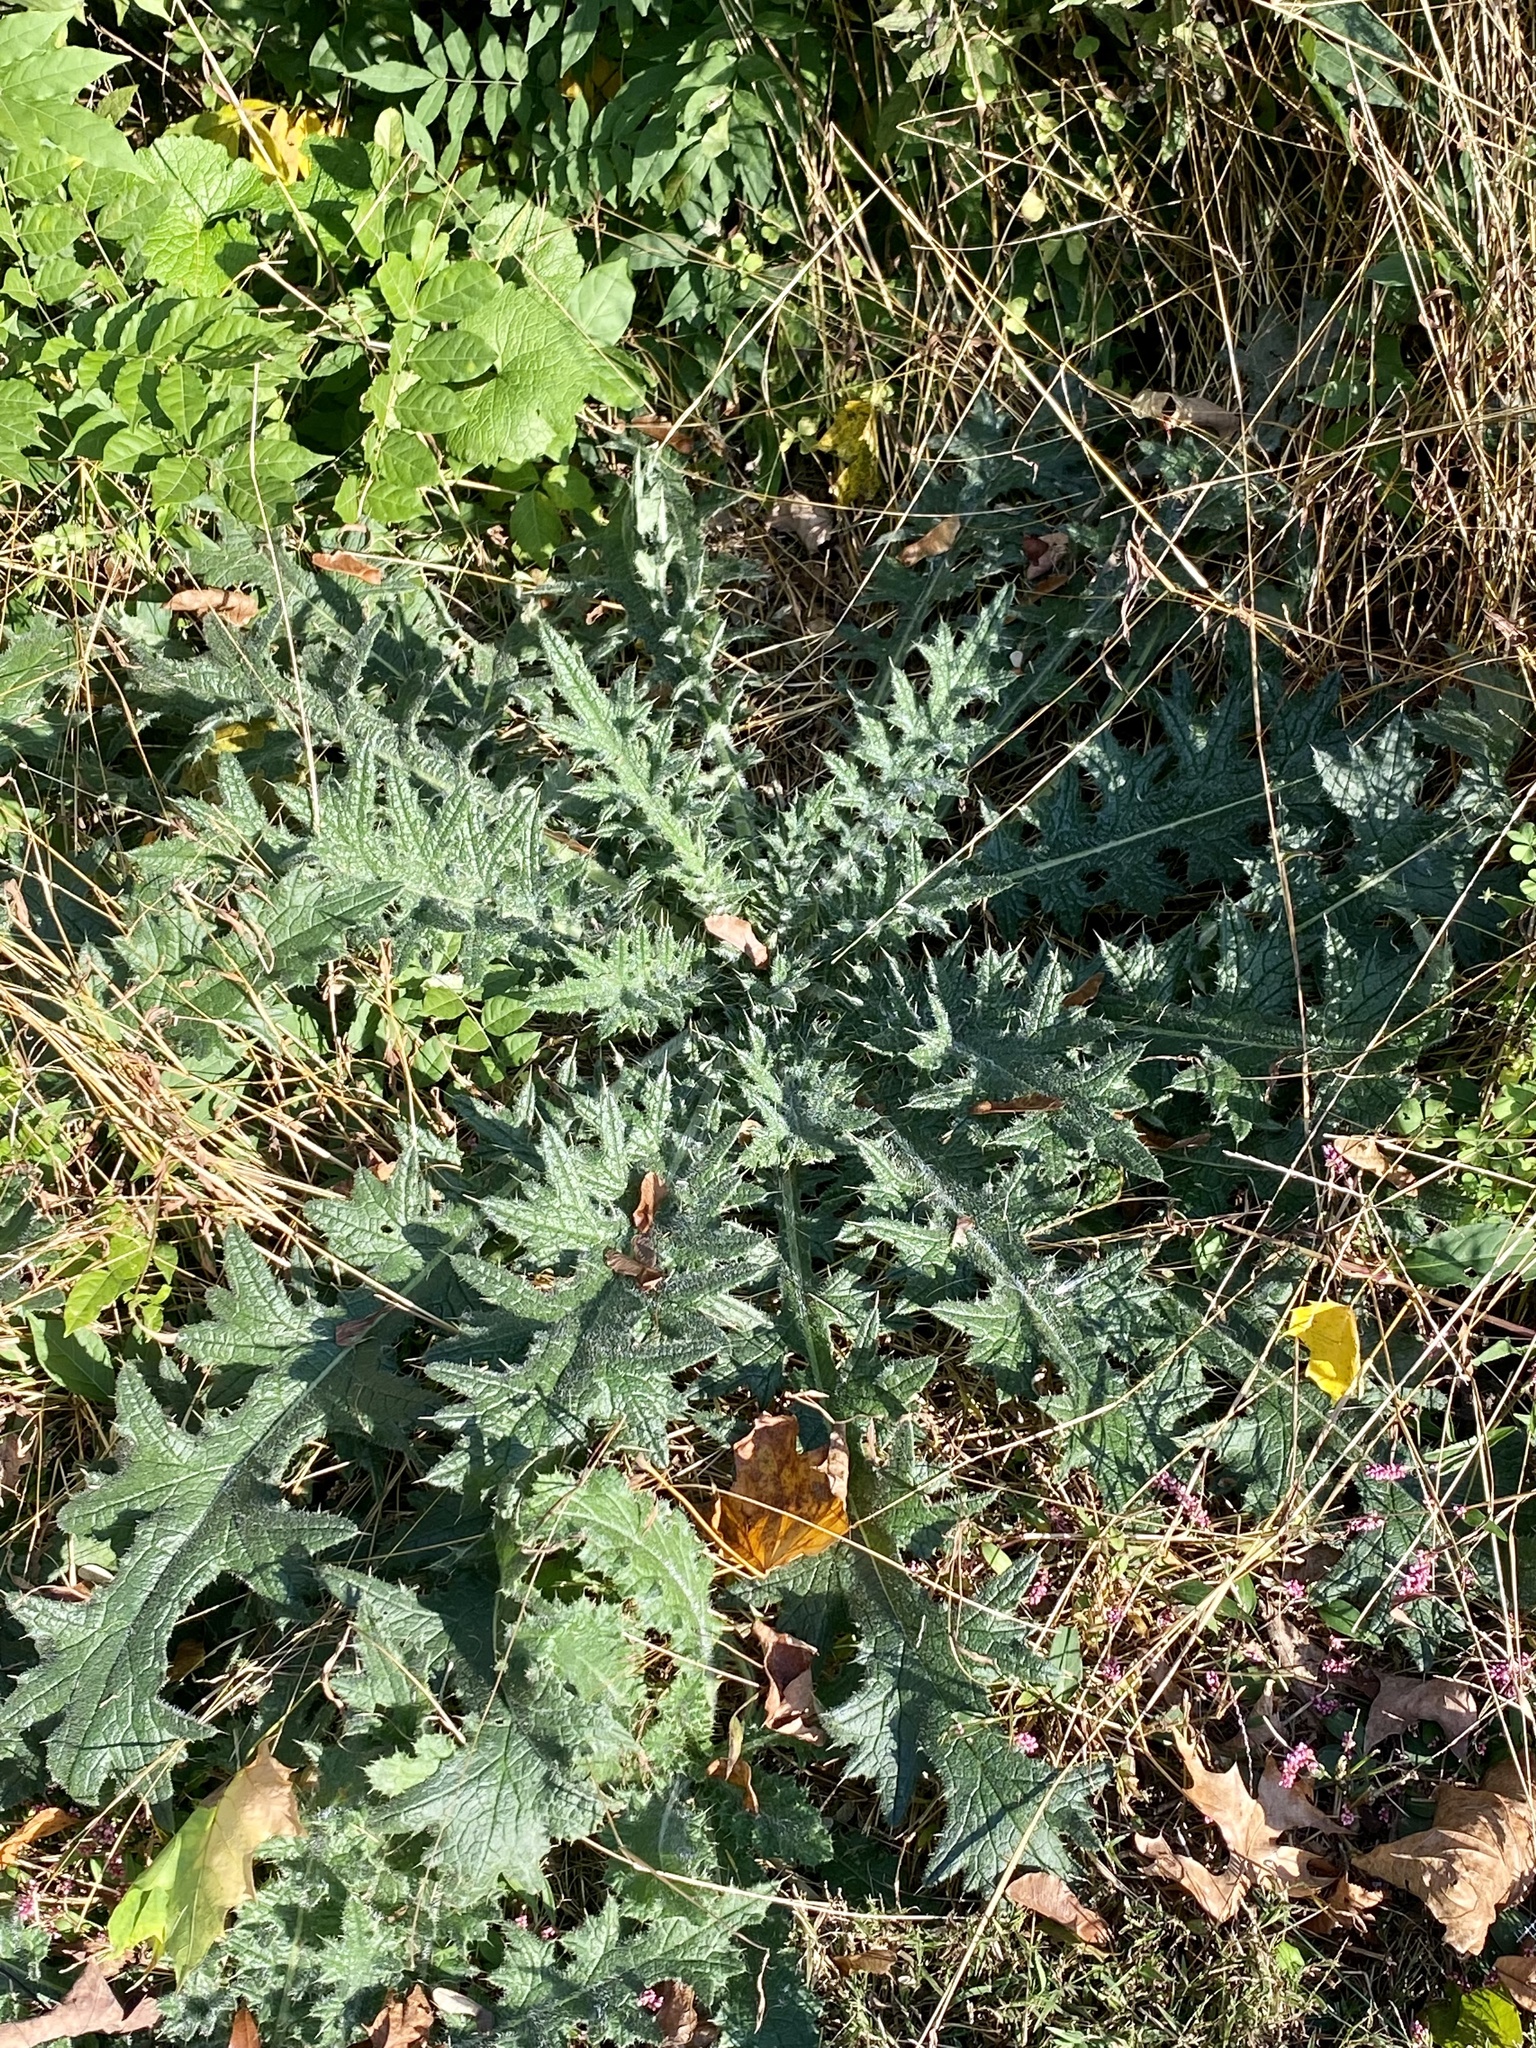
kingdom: Plantae
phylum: Tracheophyta
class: Magnoliopsida
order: Asterales
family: Asteraceae
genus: Cirsium
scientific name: Cirsium vulgare
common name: Bull thistle
